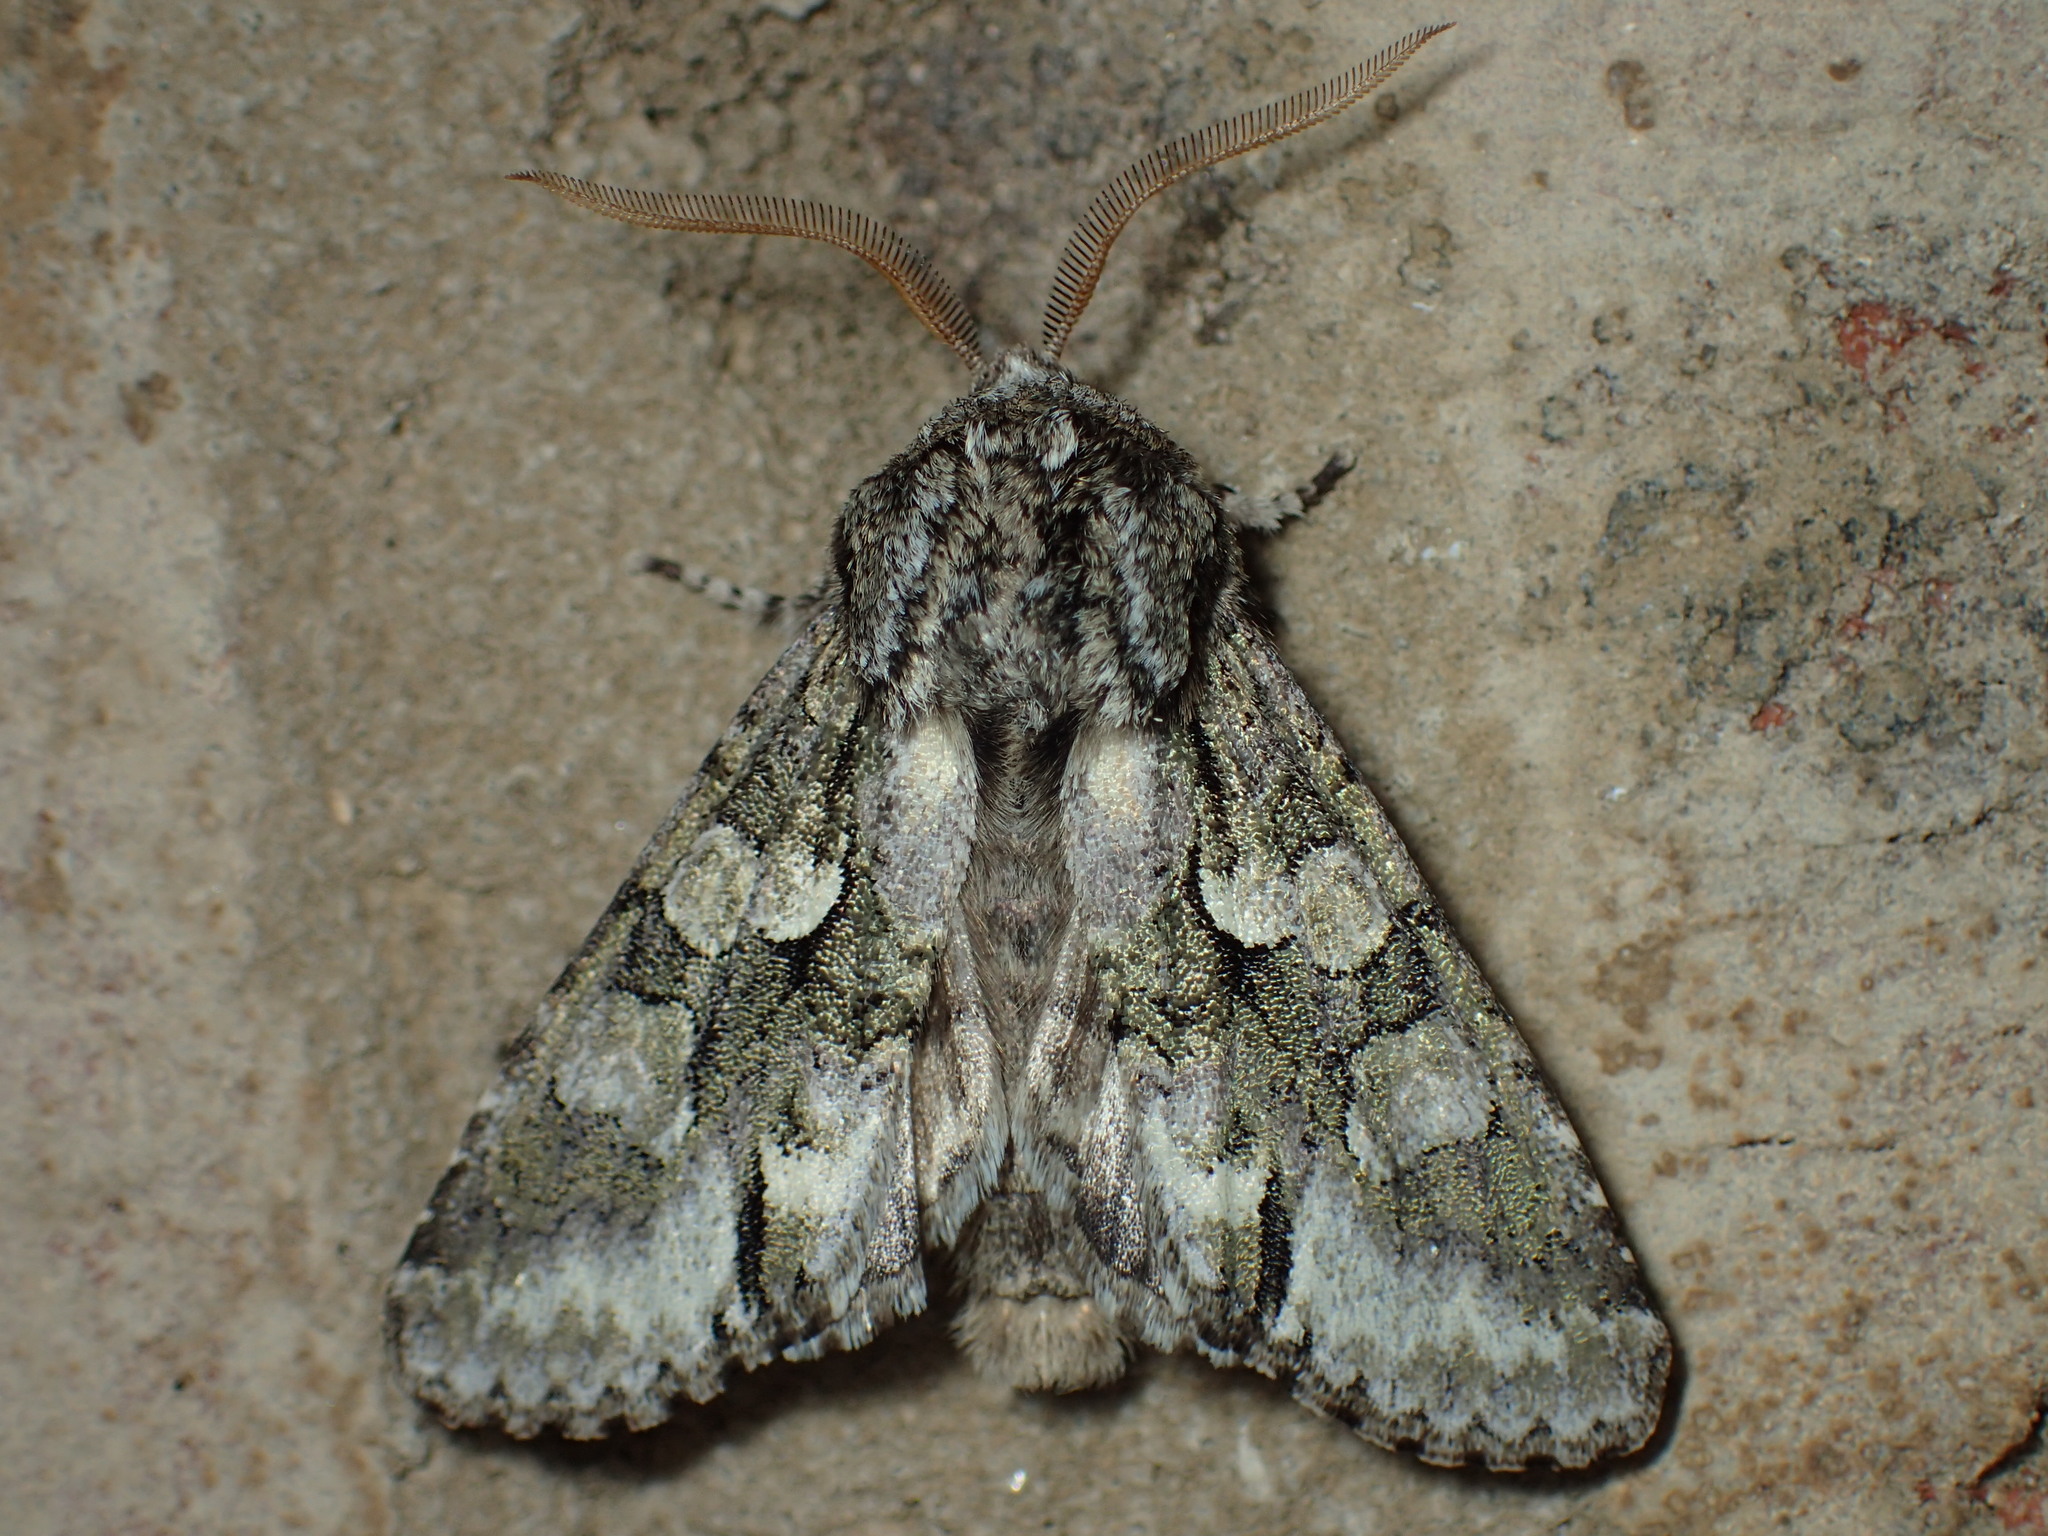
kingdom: Animalia
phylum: Arthropoda
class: Insecta
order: Lepidoptera
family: Noctuidae
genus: Psaphida
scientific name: Psaphida resumens
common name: Figure-eight sallow
